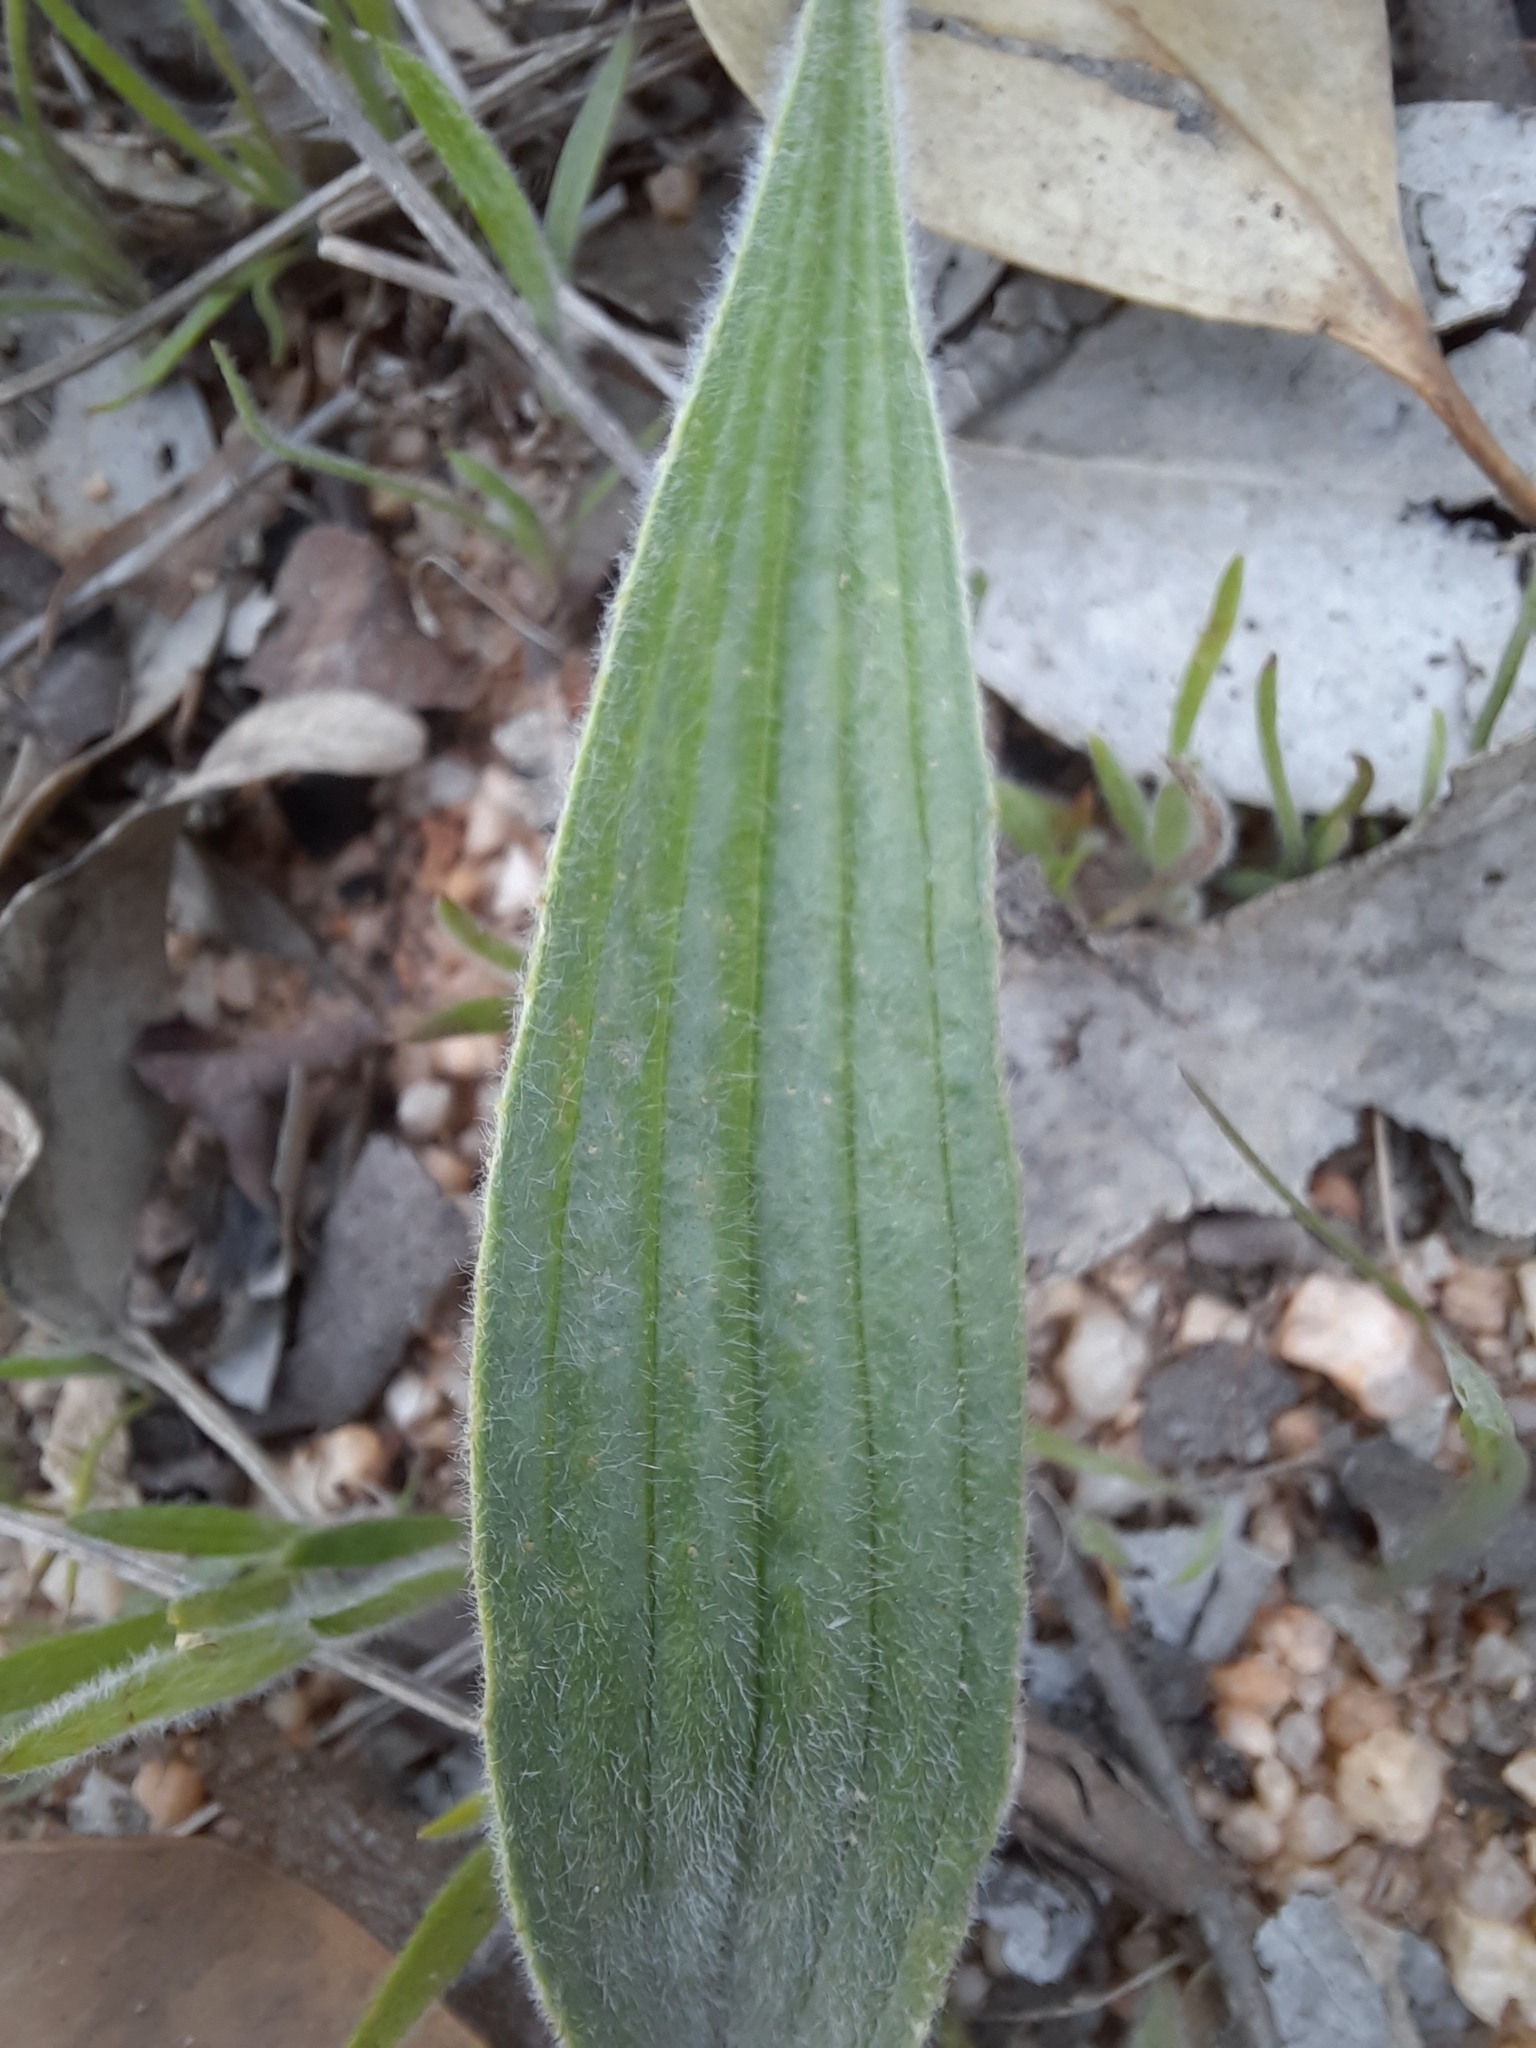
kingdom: Plantae
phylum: Tracheophyta
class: Magnoliopsida
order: Lamiales
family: Plantaginaceae
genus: Plantago
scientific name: Plantago lanceolata
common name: Ribwort plantain
